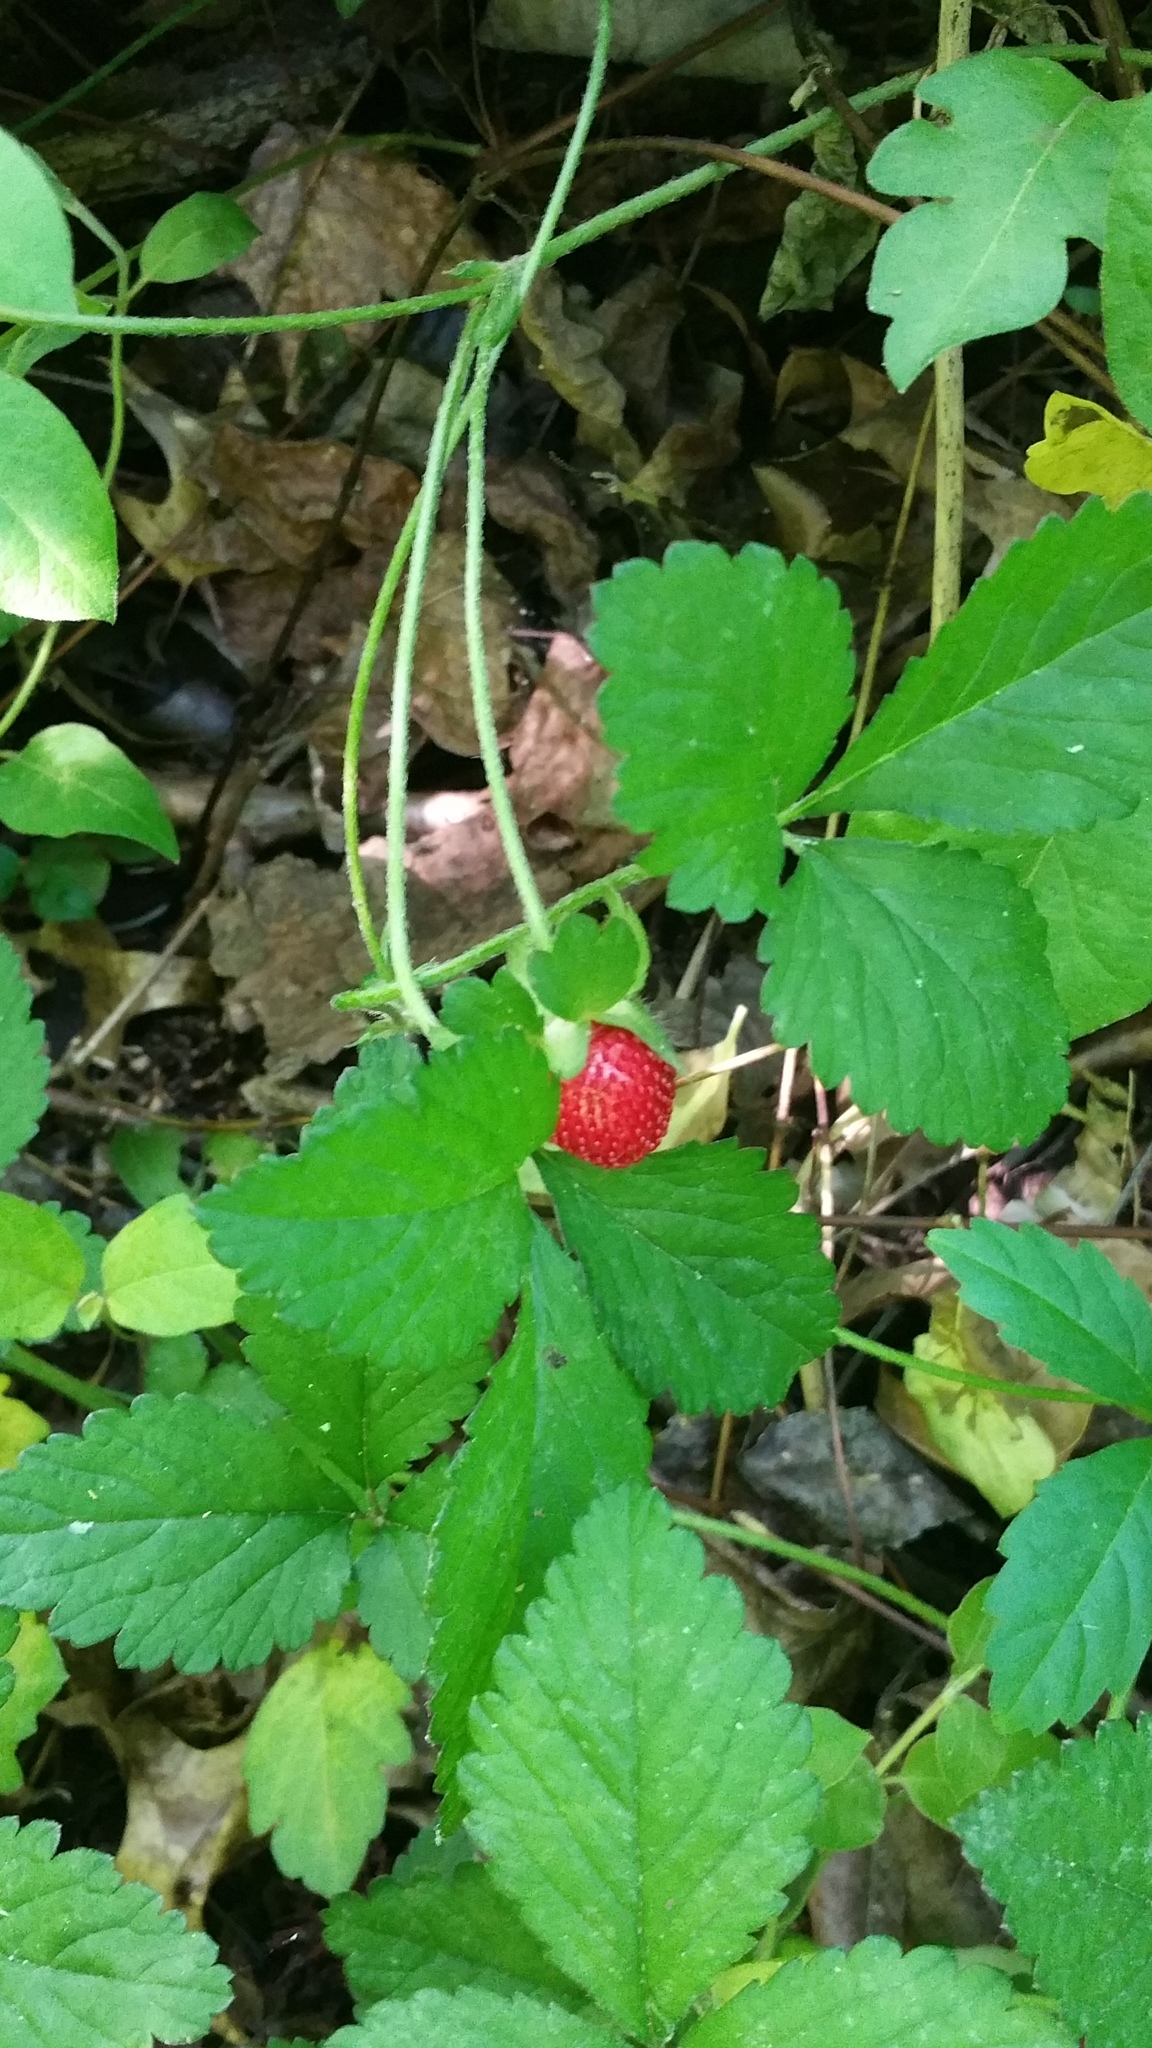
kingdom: Plantae
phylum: Tracheophyta
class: Magnoliopsida
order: Rosales
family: Rosaceae
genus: Potentilla
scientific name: Potentilla indica
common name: Yellow-flowered strawberry
